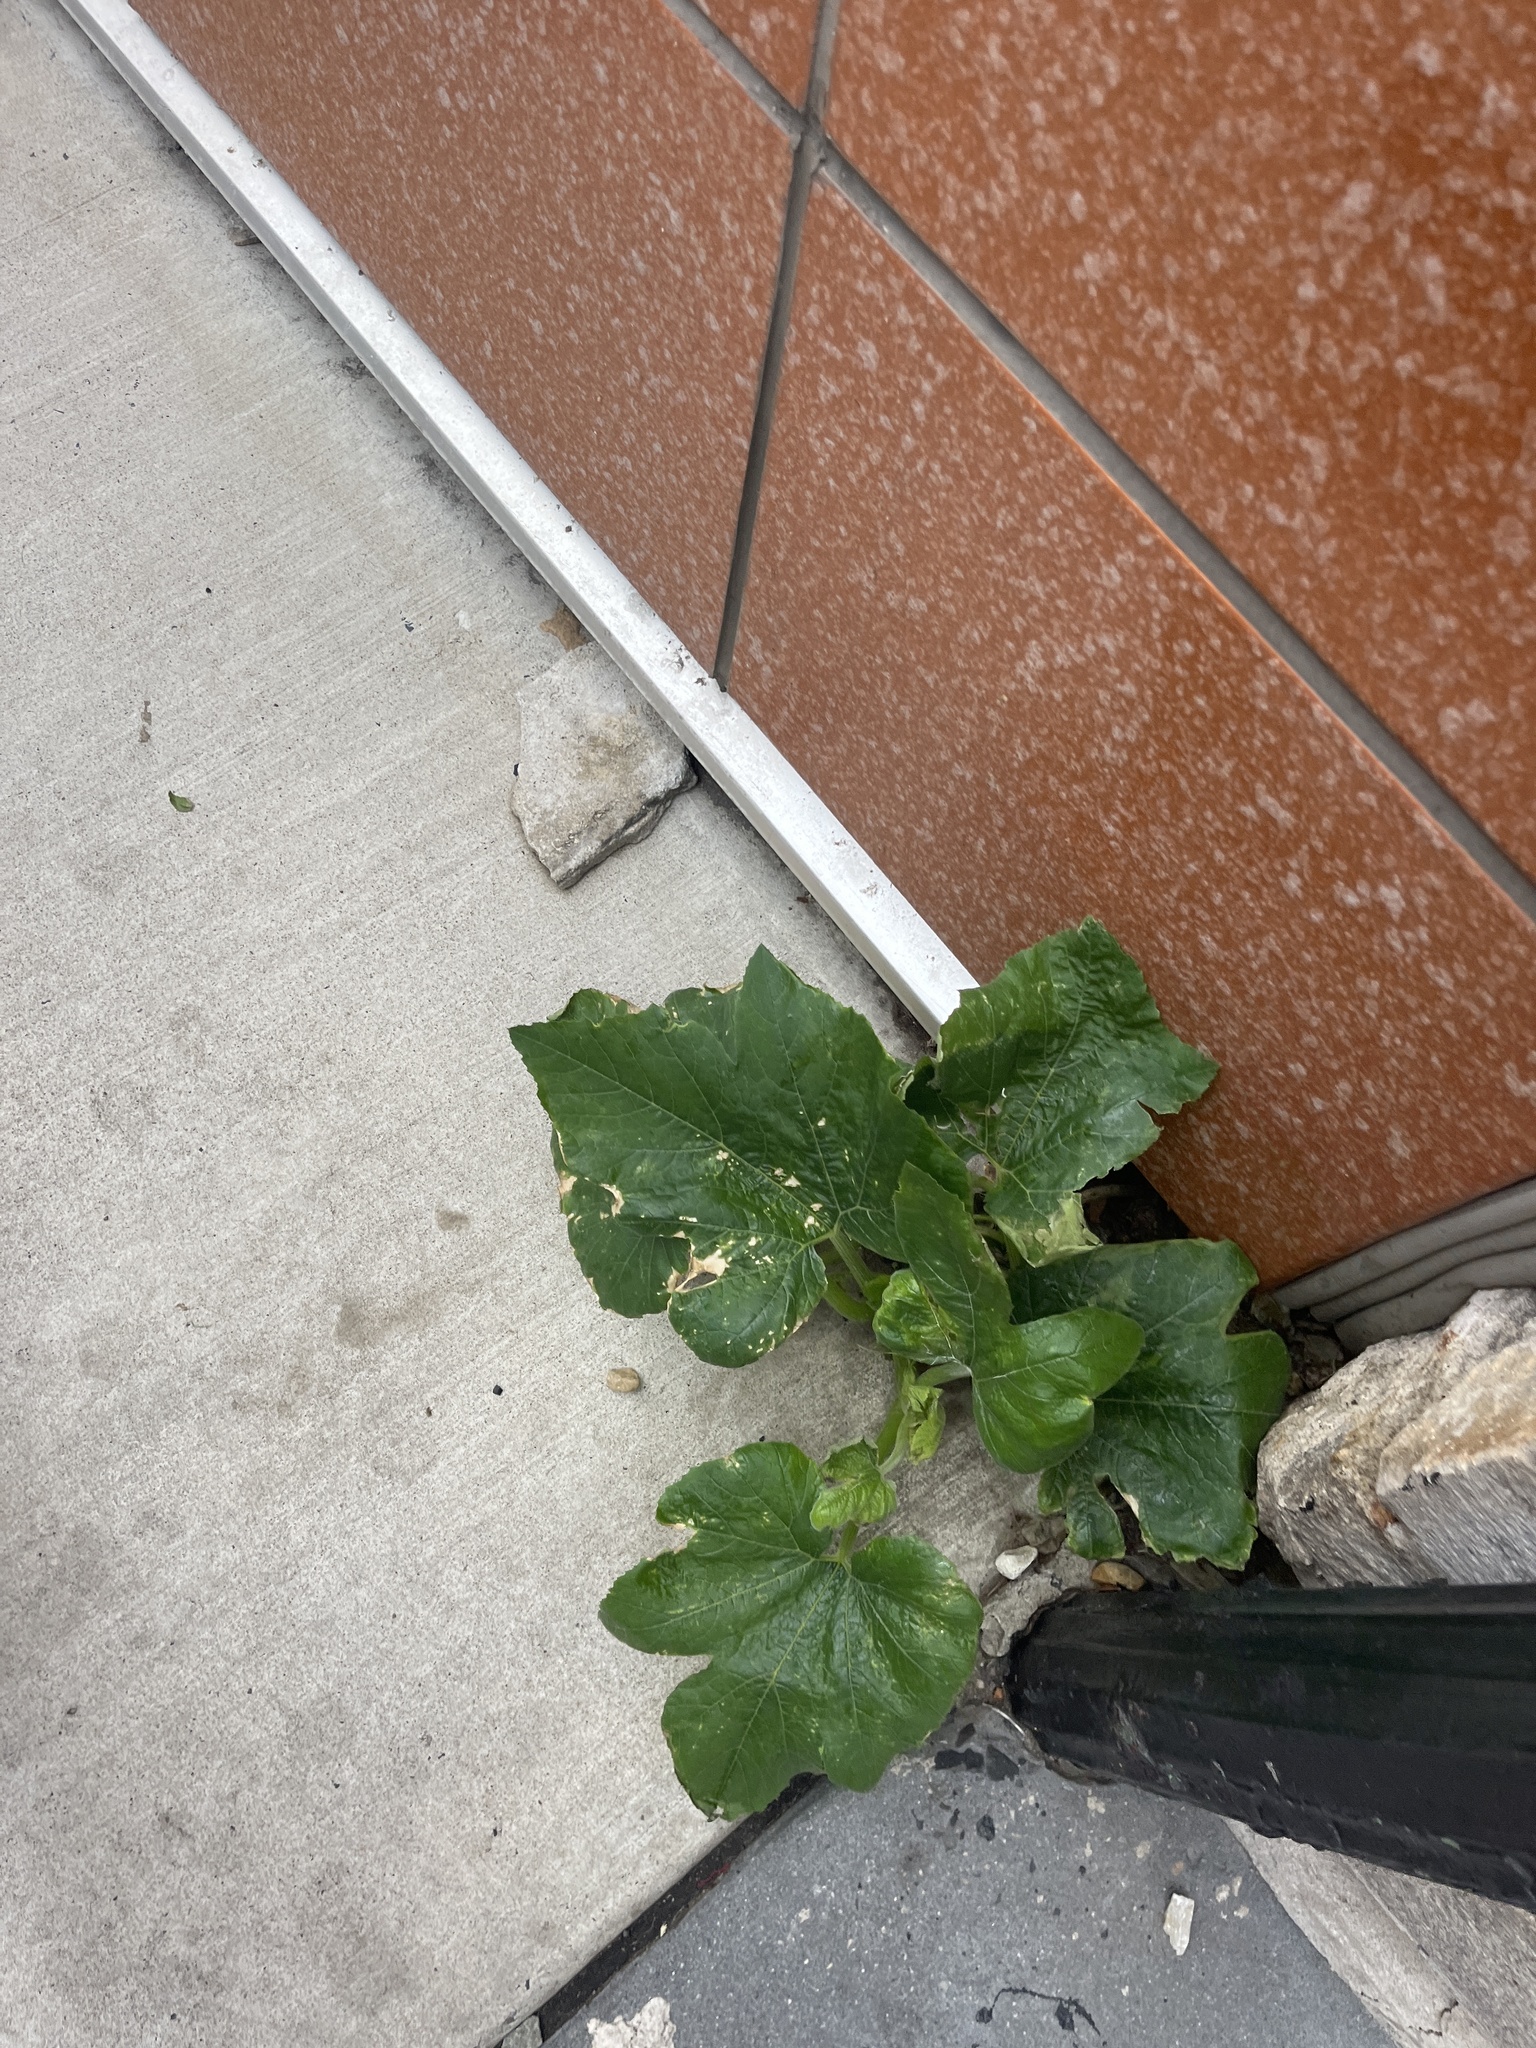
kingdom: Plantae
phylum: Tracheophyta
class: Magnoliopsida
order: Lamiales
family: Paulowniaceae
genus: Paulownia
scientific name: Paulownia tomentosa
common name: Foxglove-tree
